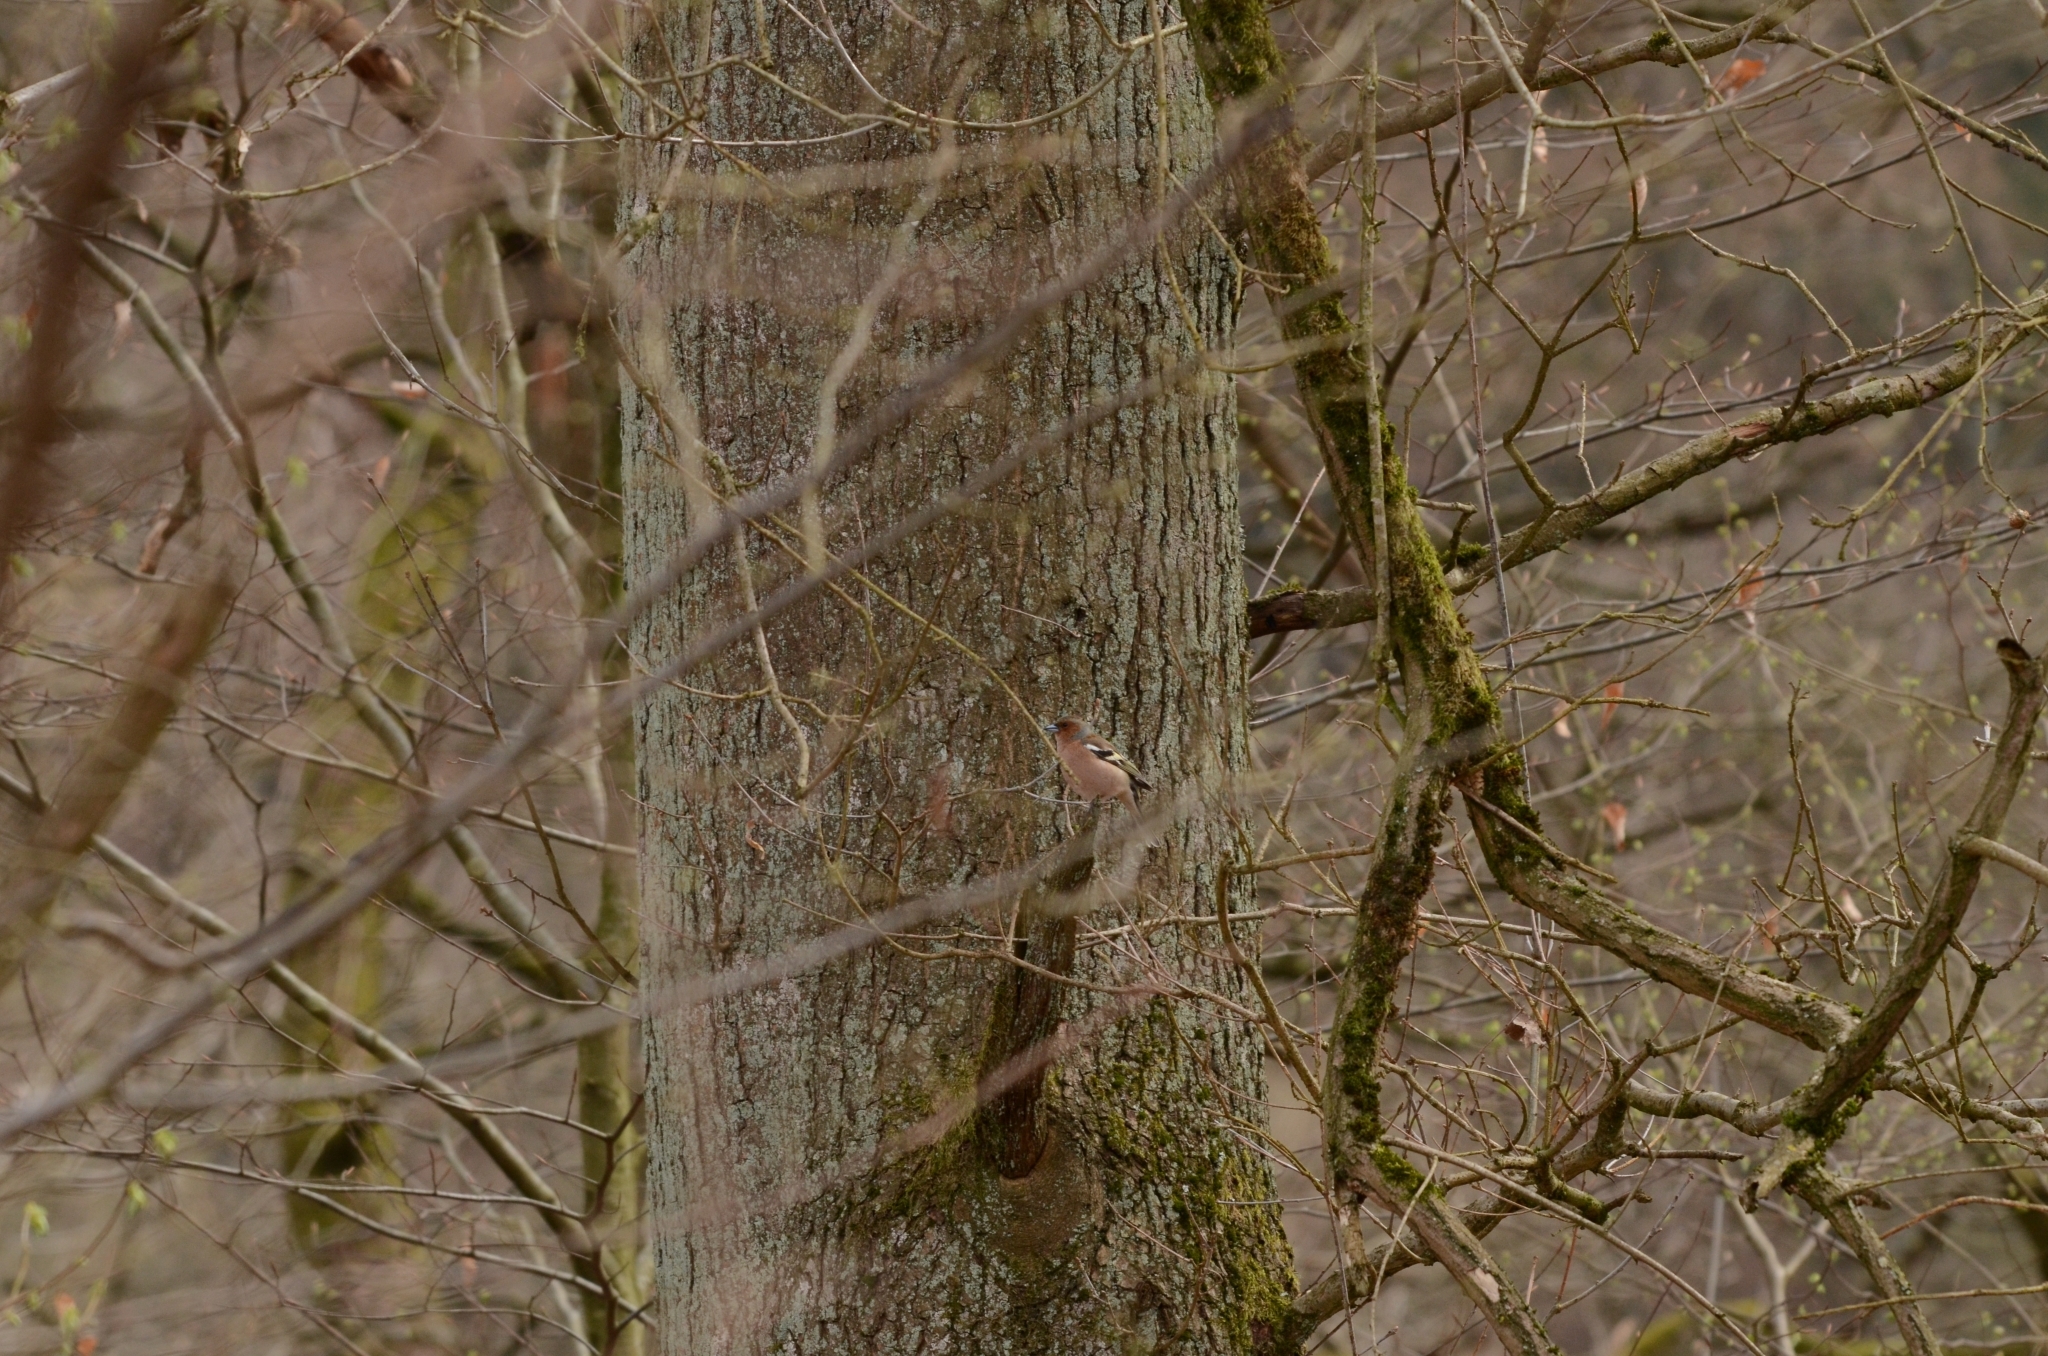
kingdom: Animalia
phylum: Chordata
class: Aves
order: Passeriformes
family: Fringillidae
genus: Fringilla
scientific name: Fringilla coelebs
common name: Common chaffinch
